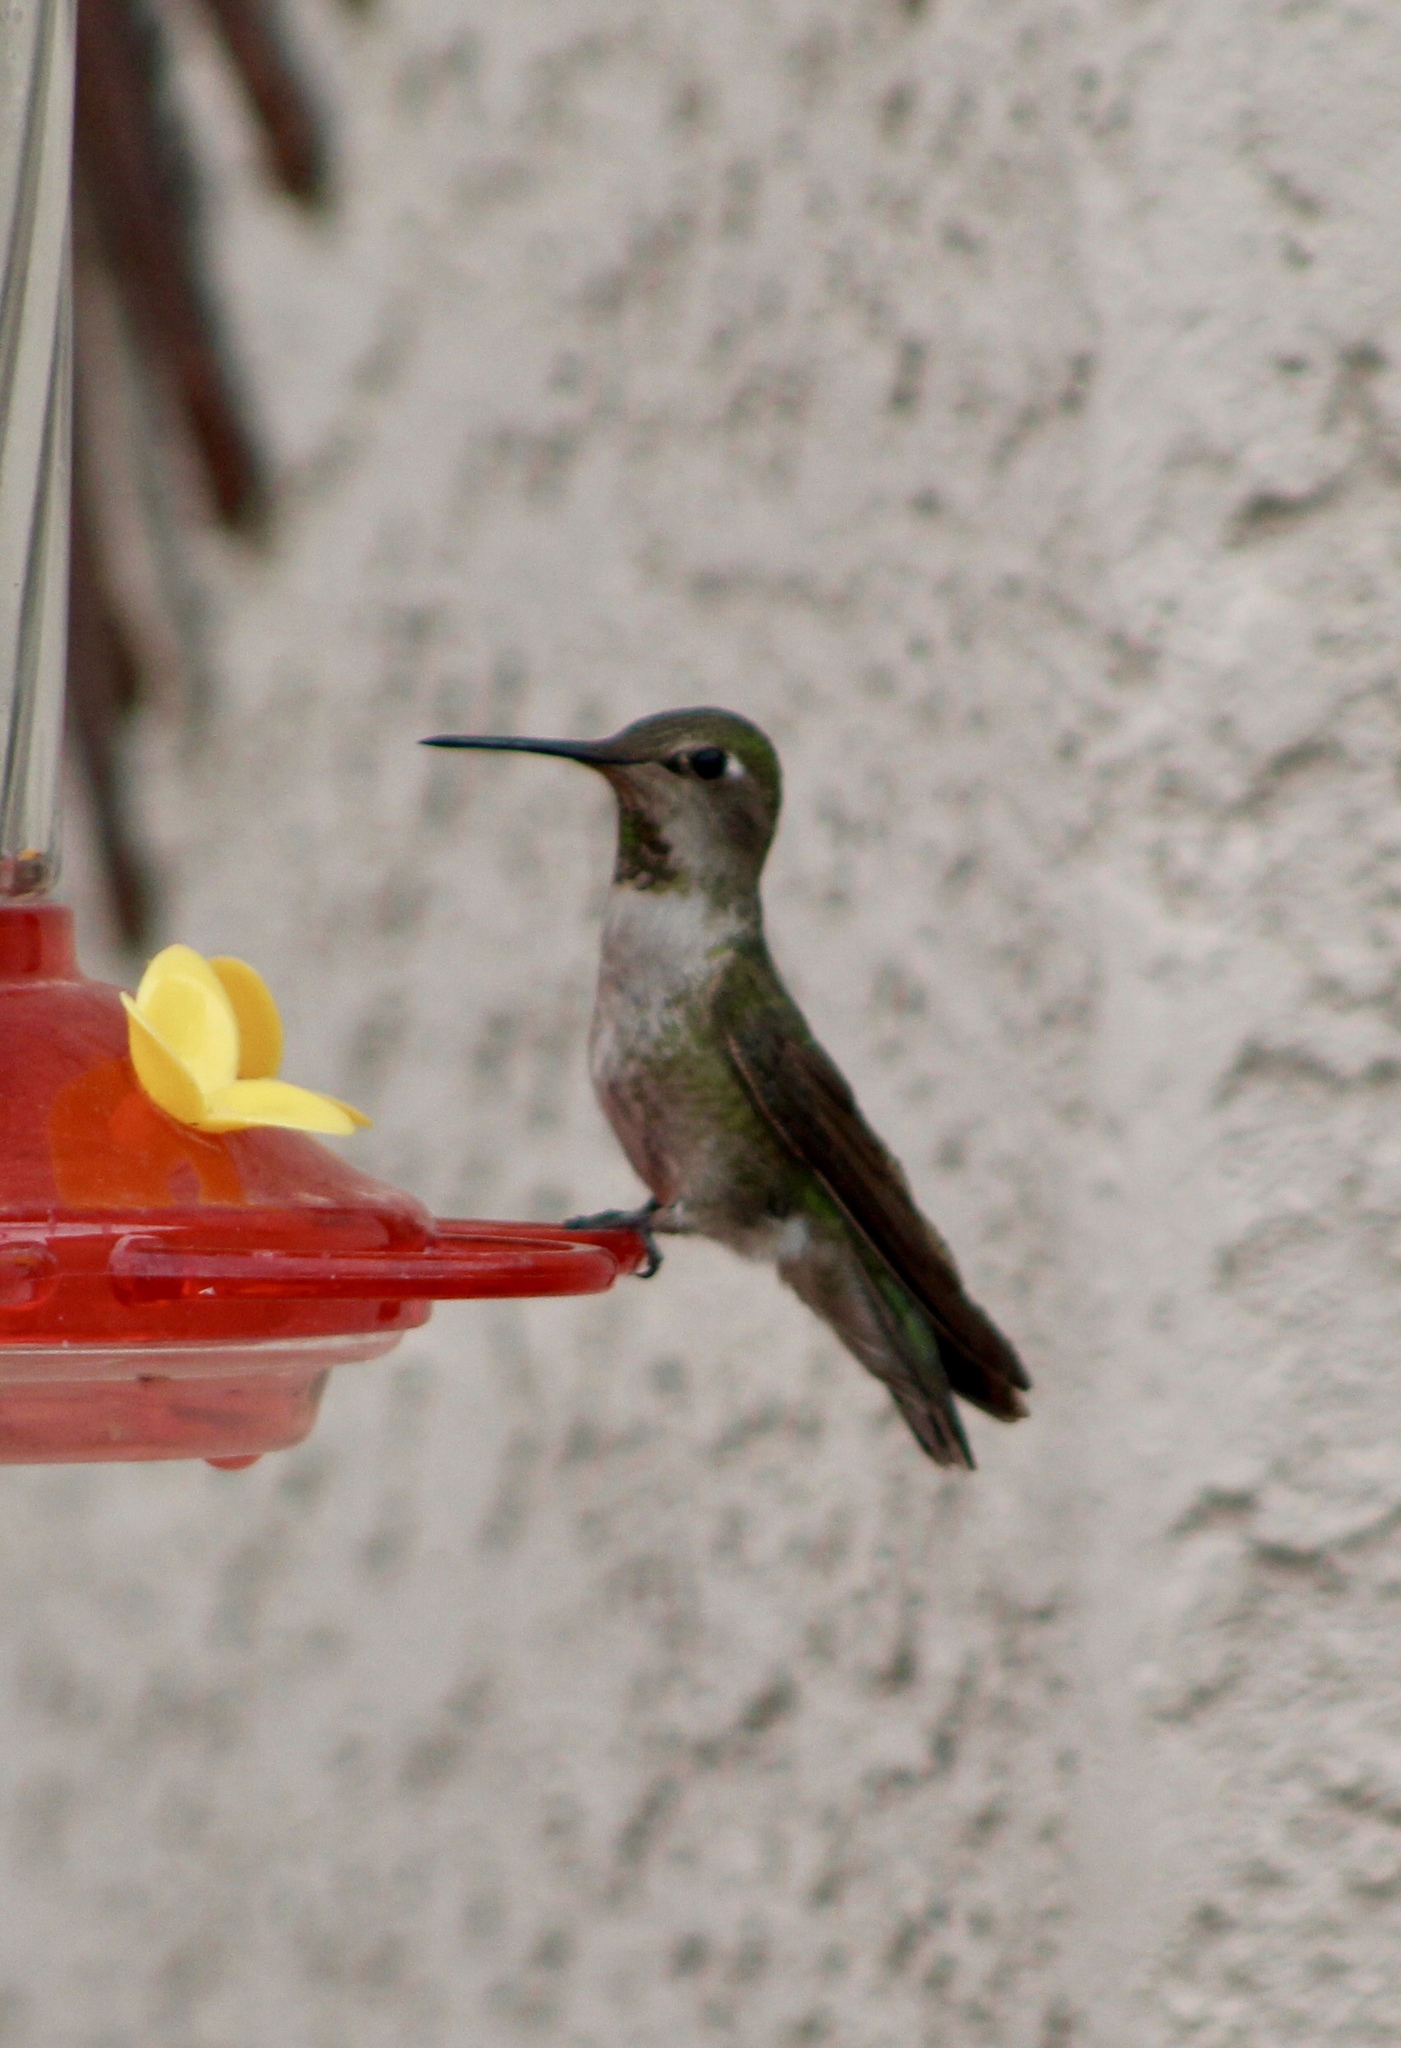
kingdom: Animalia
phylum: Chordata
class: Aves
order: Apodiformes
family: Trochilidae
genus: Calypte
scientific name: Calypte anna
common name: Anna's hummingbird
